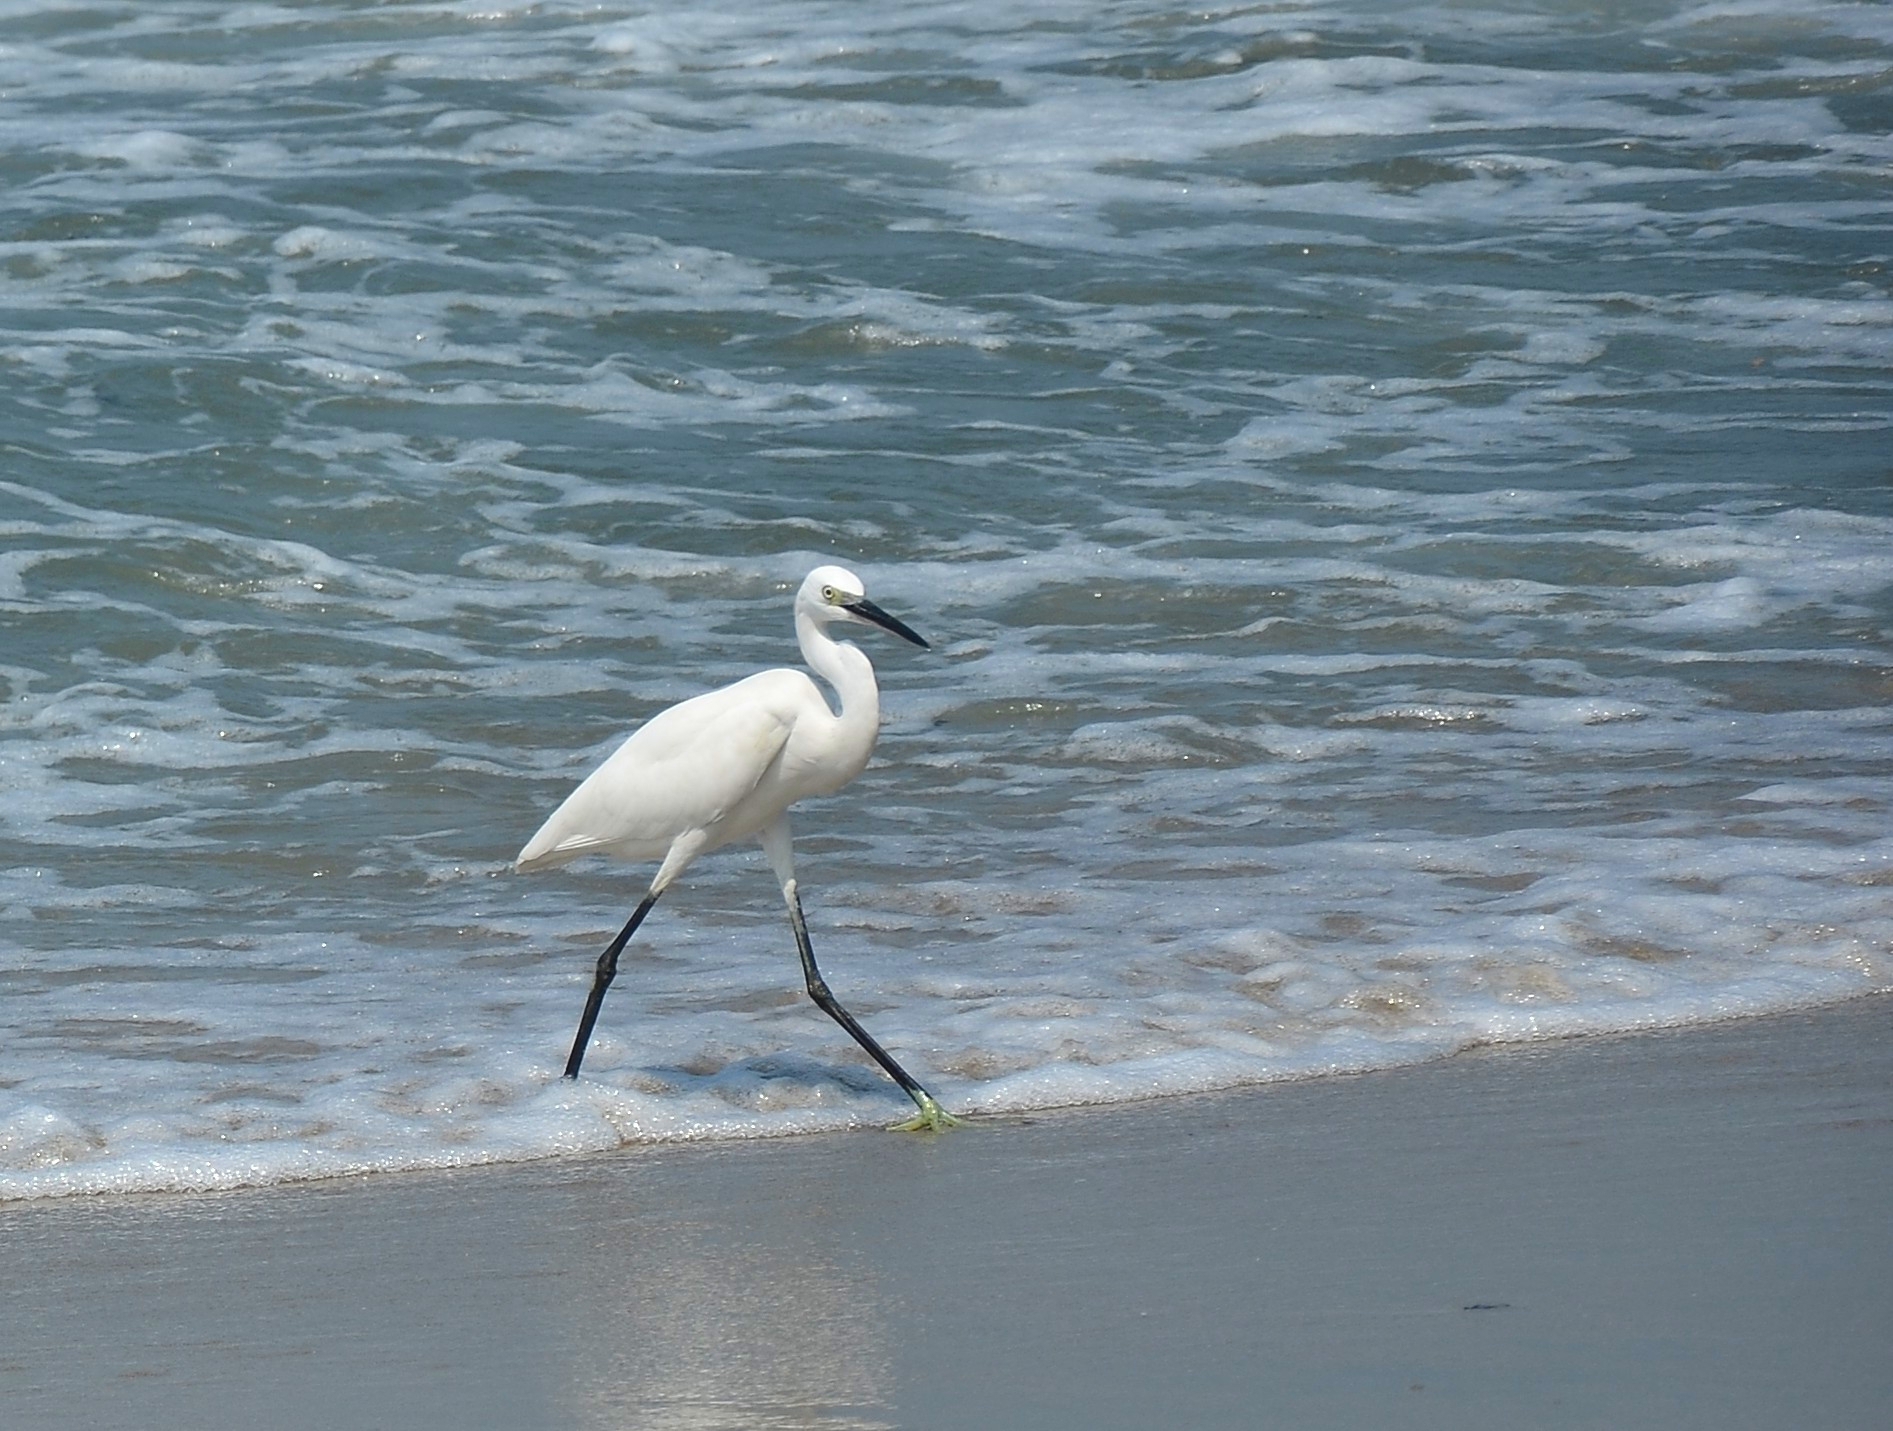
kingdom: Animalia
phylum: Chordata
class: Aves
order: Pelecaniformes
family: Ardeidae
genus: Egretta
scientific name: Egretta garzetta
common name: Little egret
